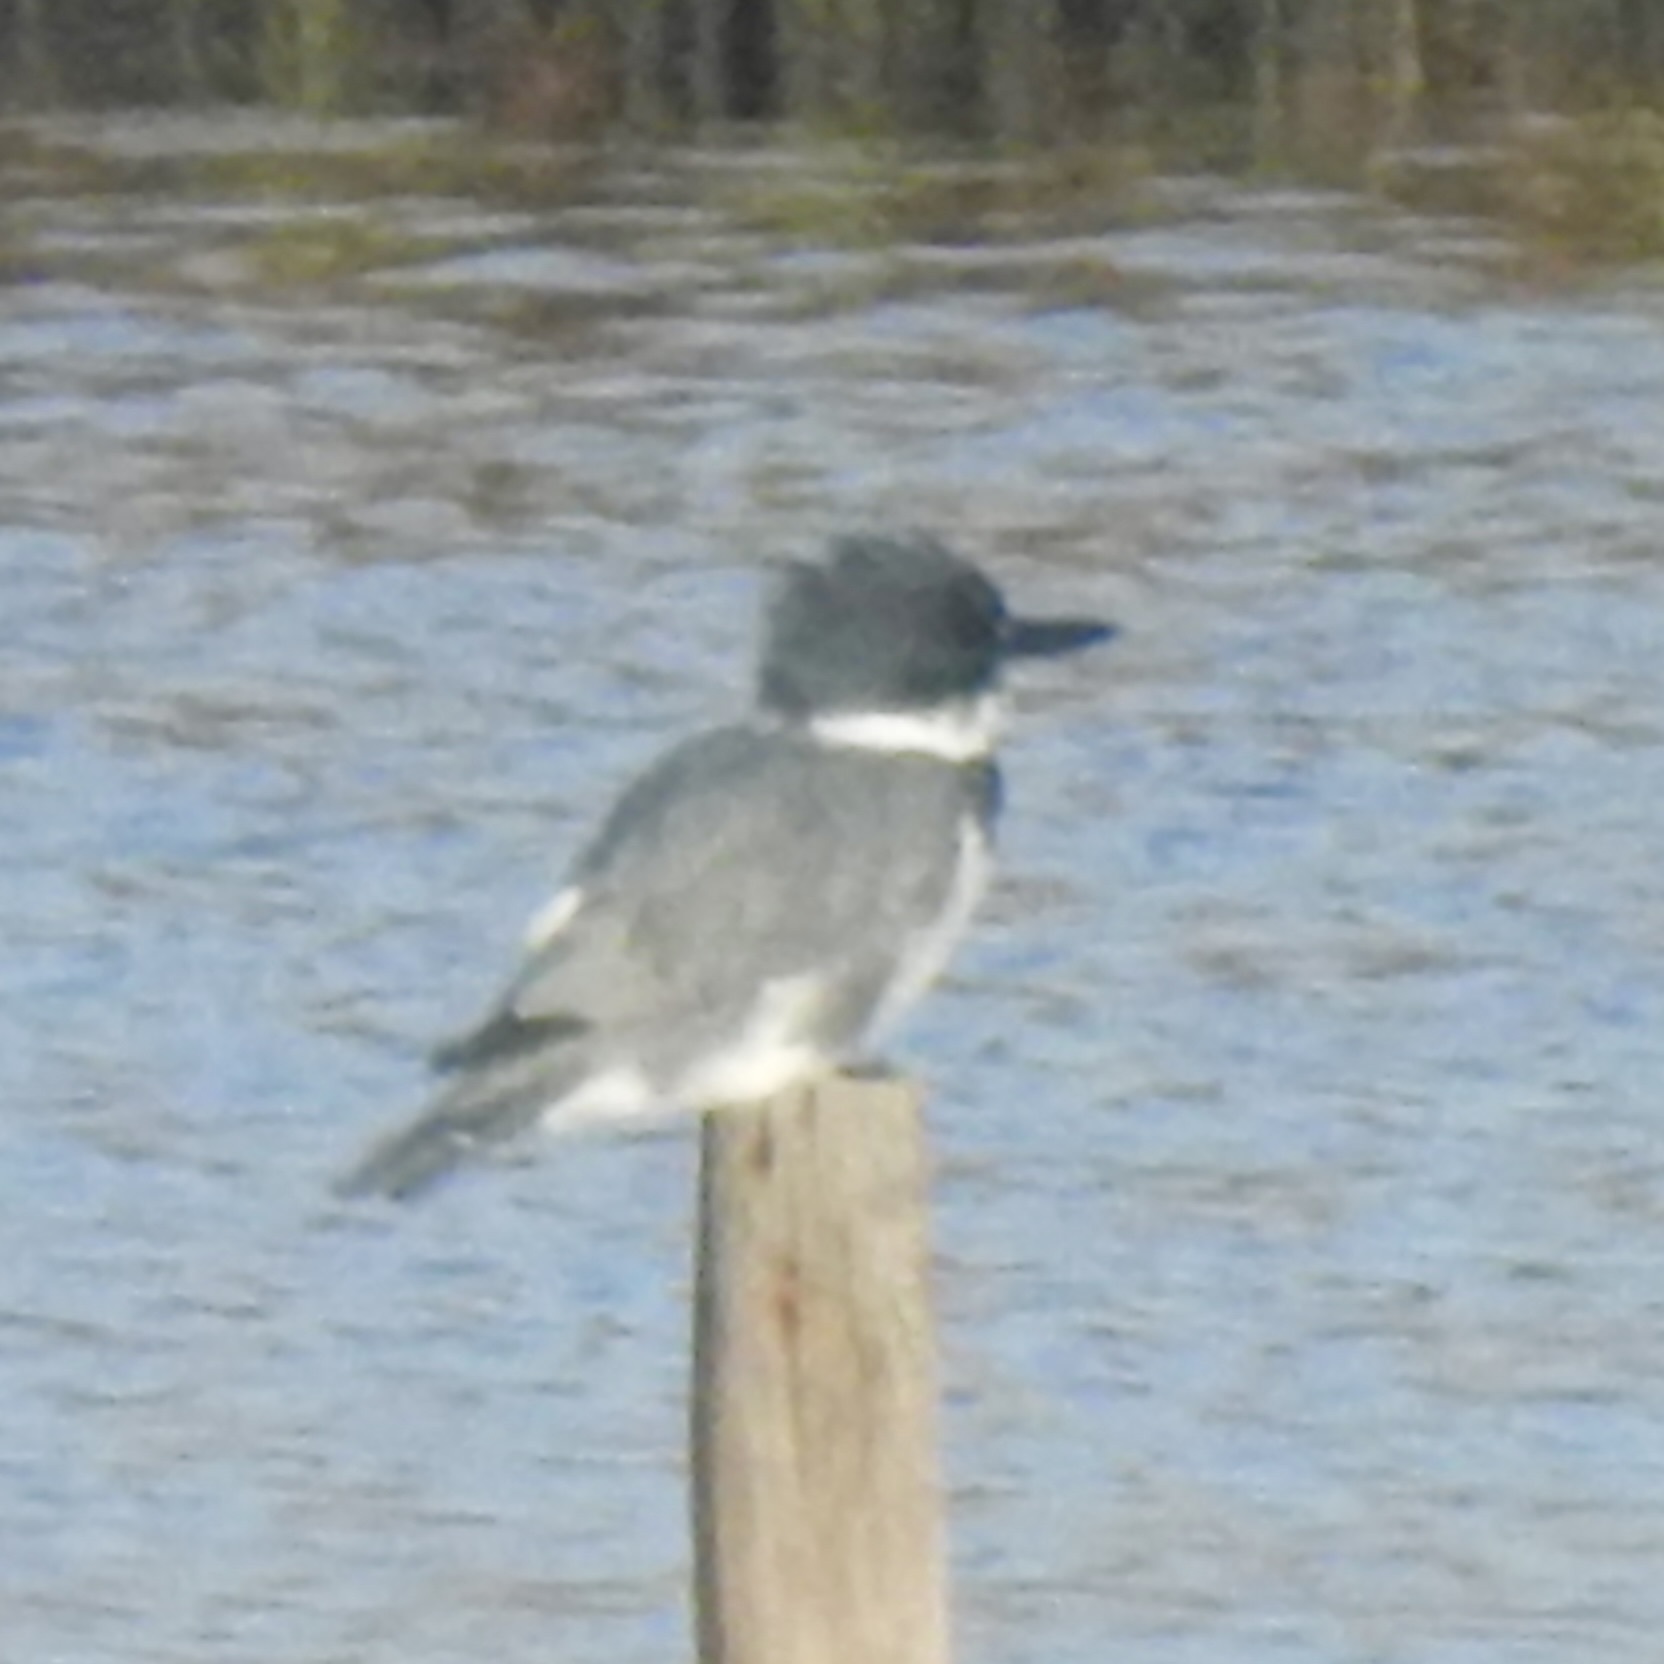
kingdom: Animalia
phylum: Chordata
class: Aves
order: Coraciiformes
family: Alcedinidae
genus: Megaceryle
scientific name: Megaceryle alcyon
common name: Belted kingfisher
